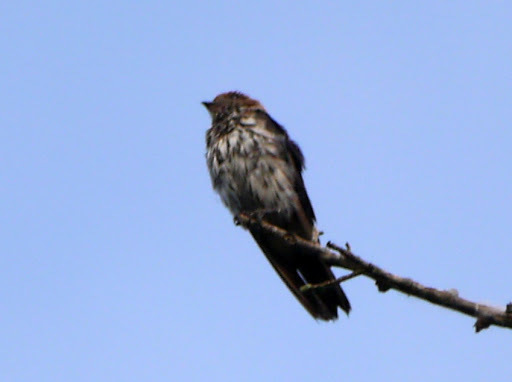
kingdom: Animalia
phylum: Chordata
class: Aves
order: Passeriformes
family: Hirundinidae
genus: Cecropis
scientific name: Cecropis abyssinica
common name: Lesser striped-swallow
